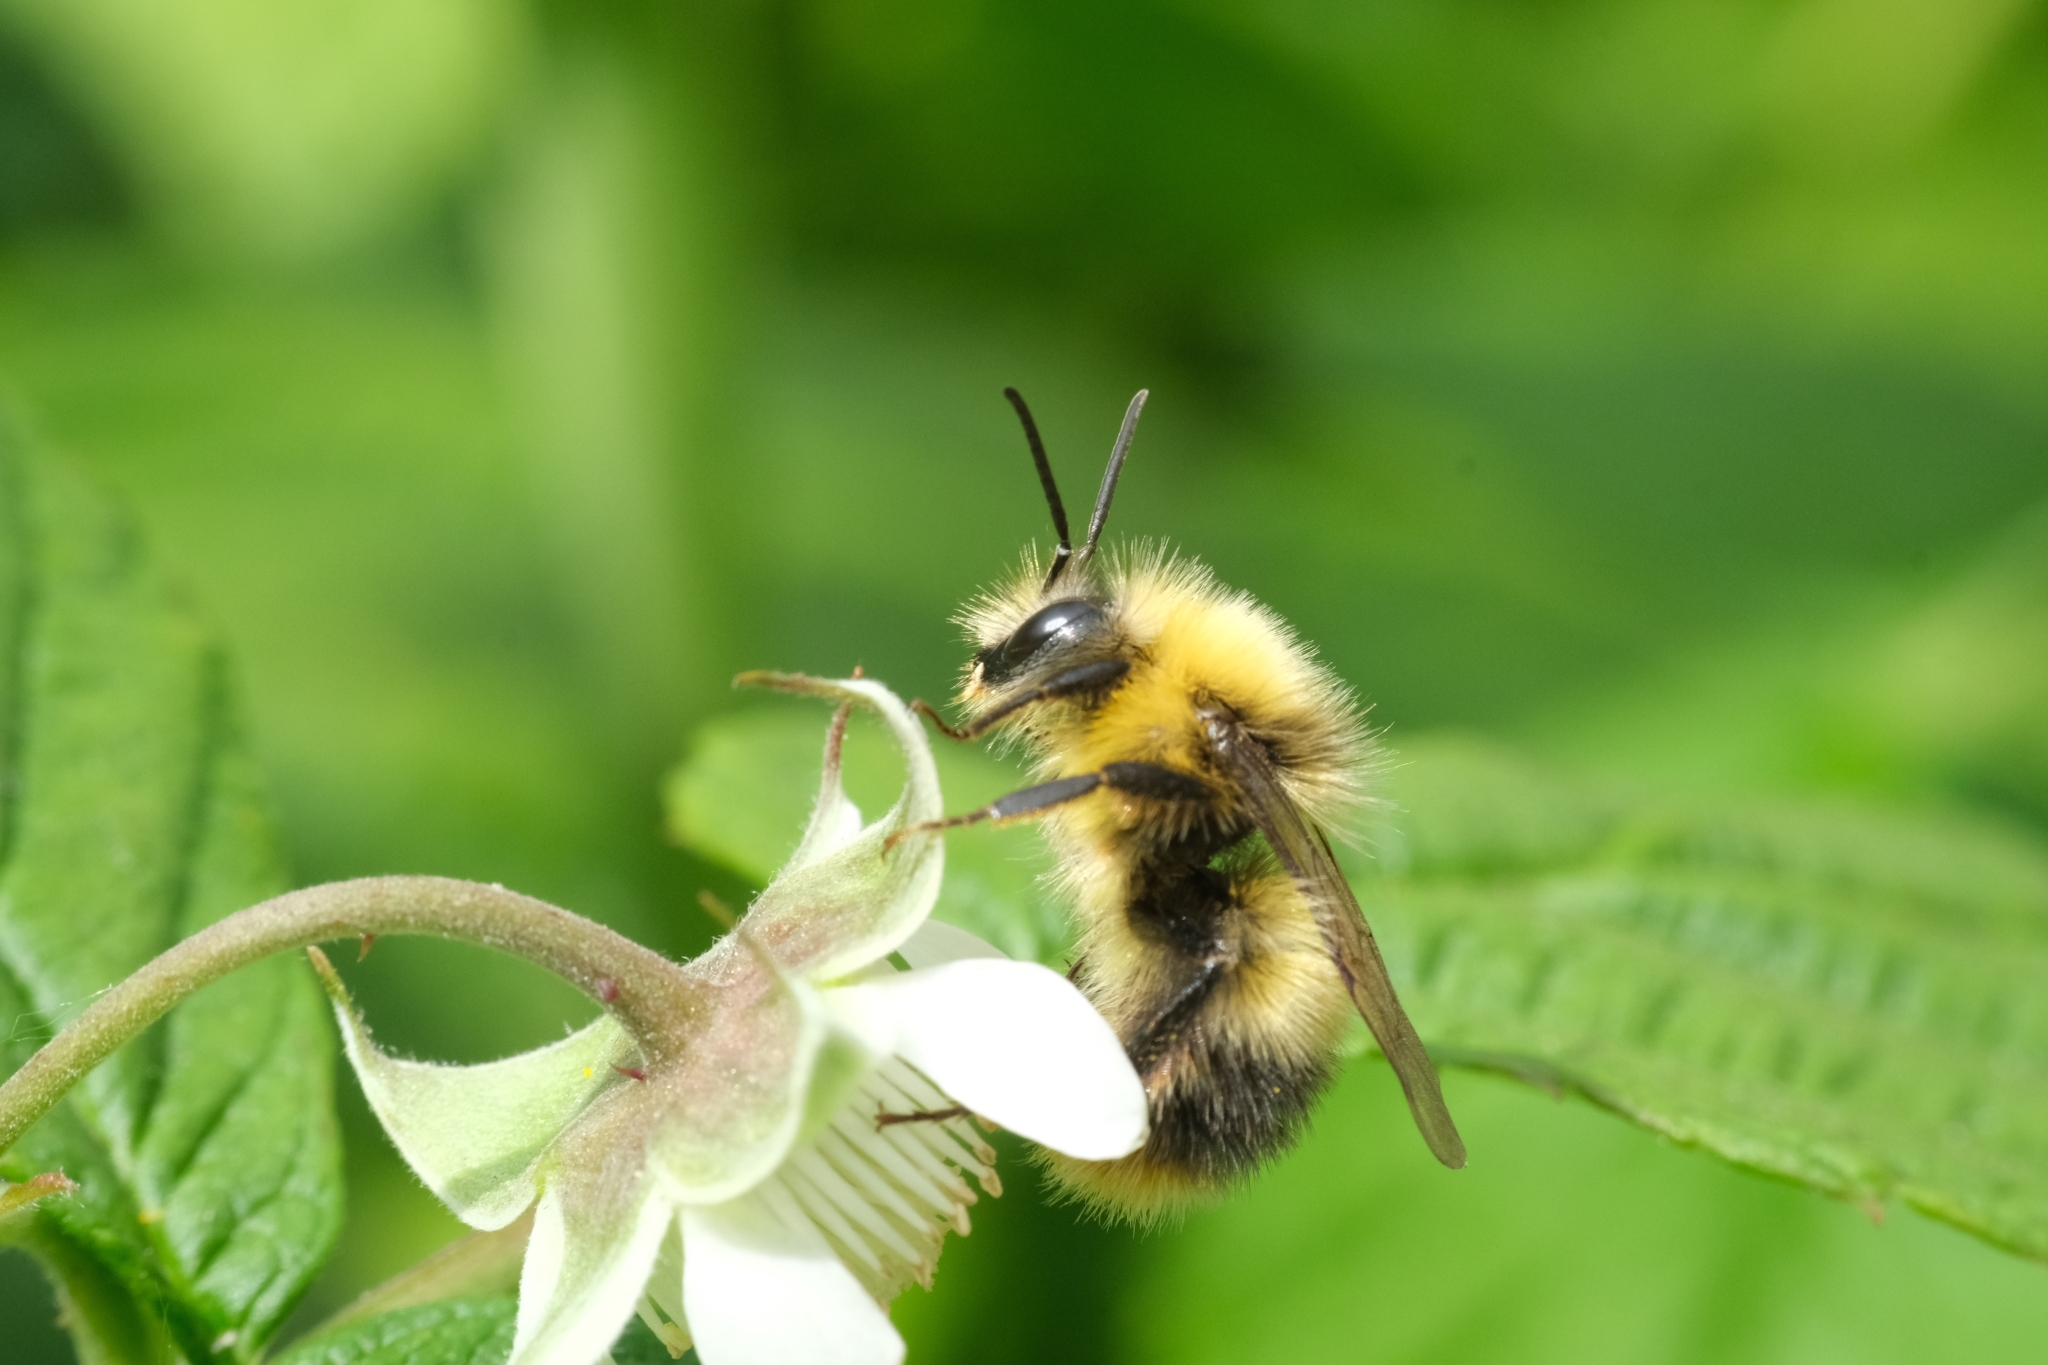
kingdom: Animalia
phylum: Arthropoda
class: Insecta
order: Hymenoptera
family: Apidae
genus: Bombus
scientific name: Bombus pratorum
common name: Early humble-bee
